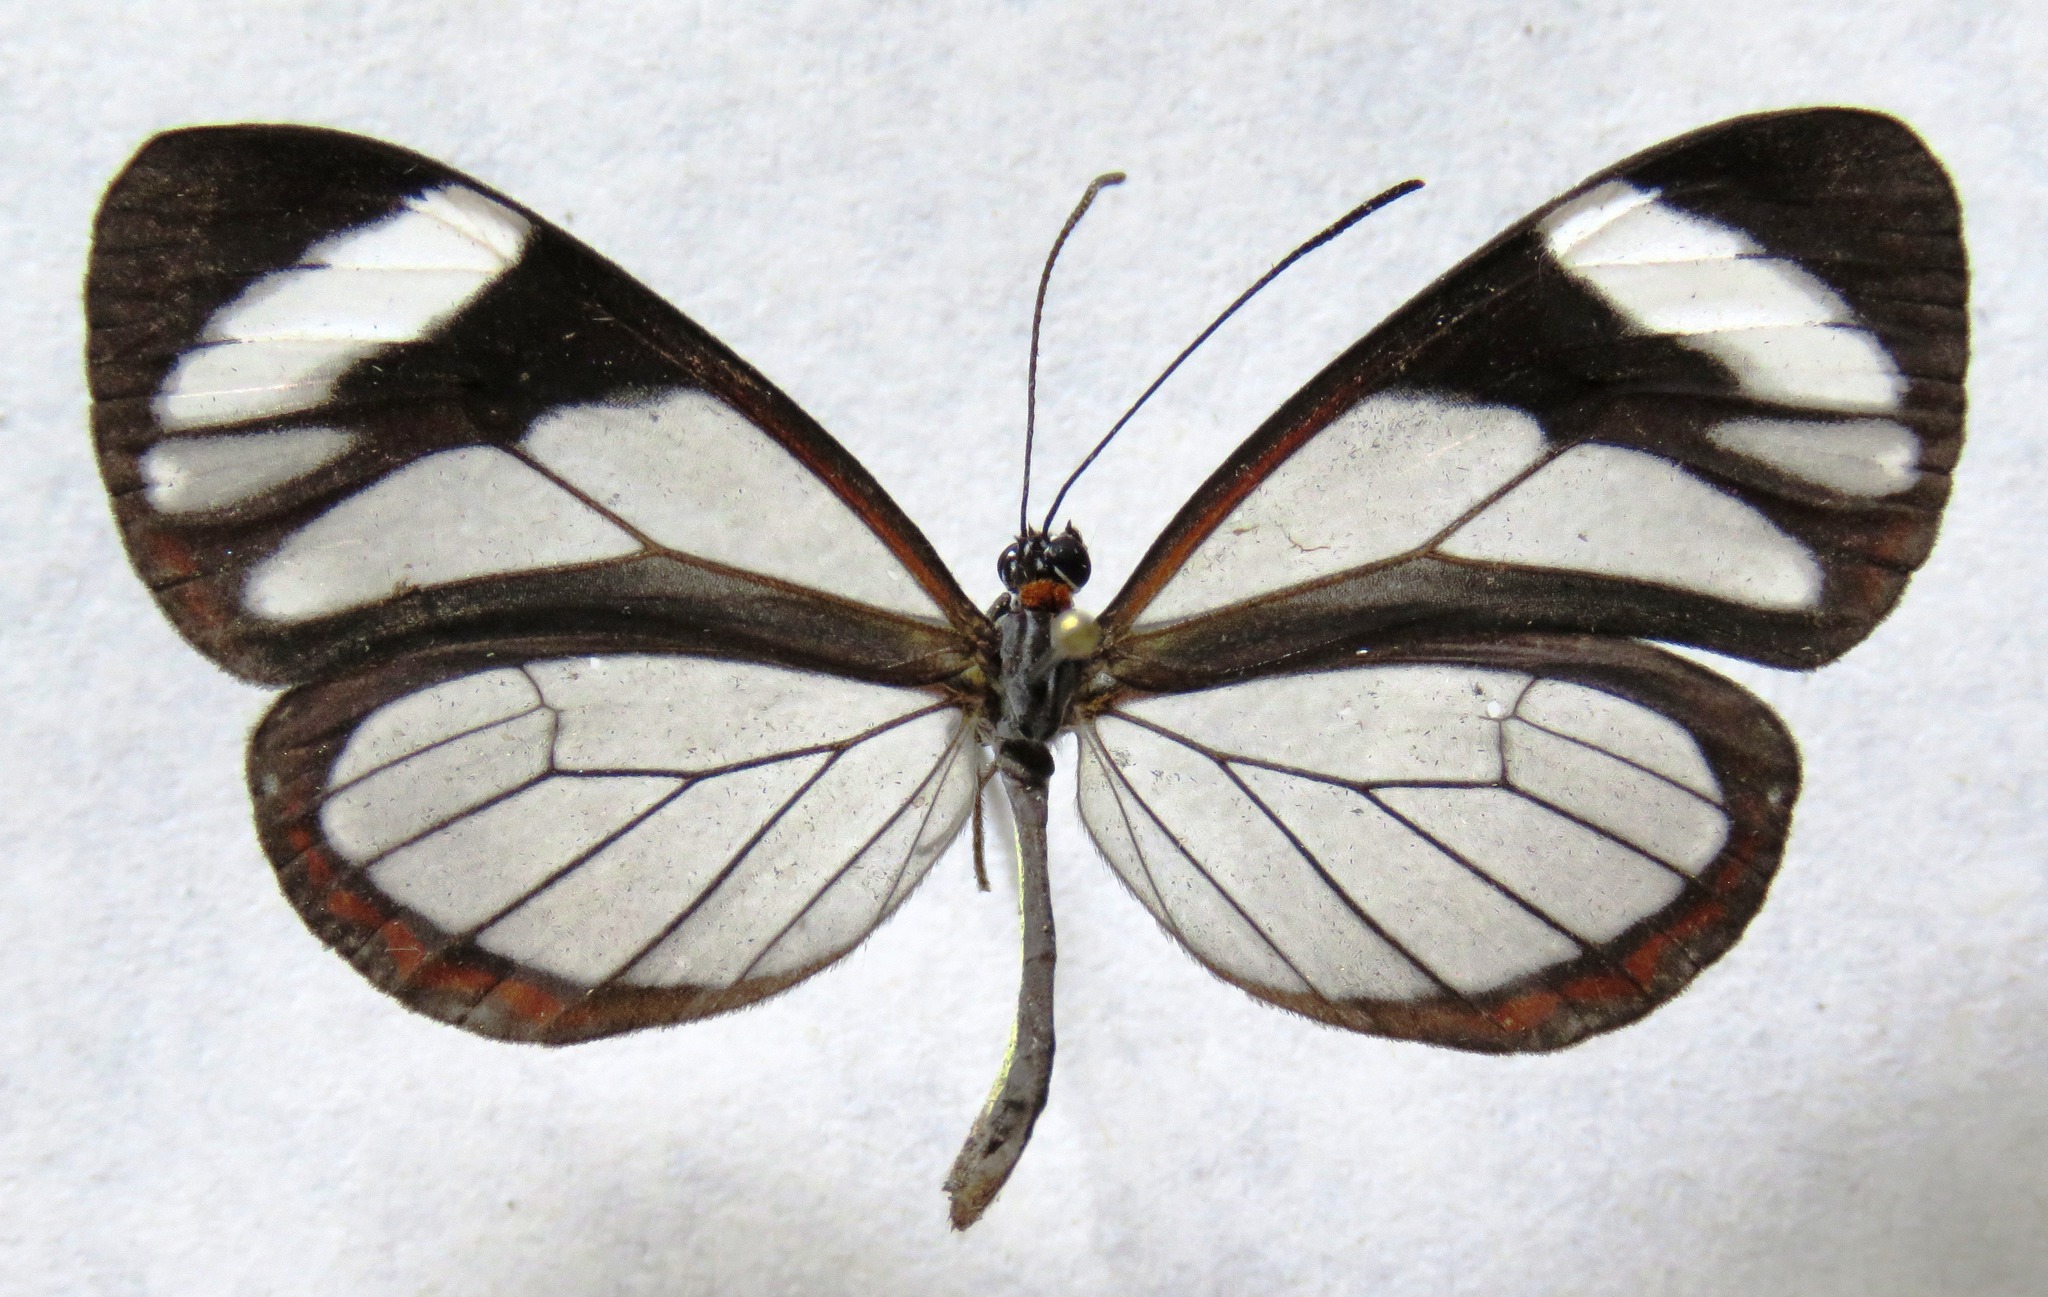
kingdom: Animalia
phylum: Arthropoda
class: Insecta
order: Lepidoptera
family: Nymphalidae
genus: Ithomia
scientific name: Ithomia patilla
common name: Patilla clearwing
